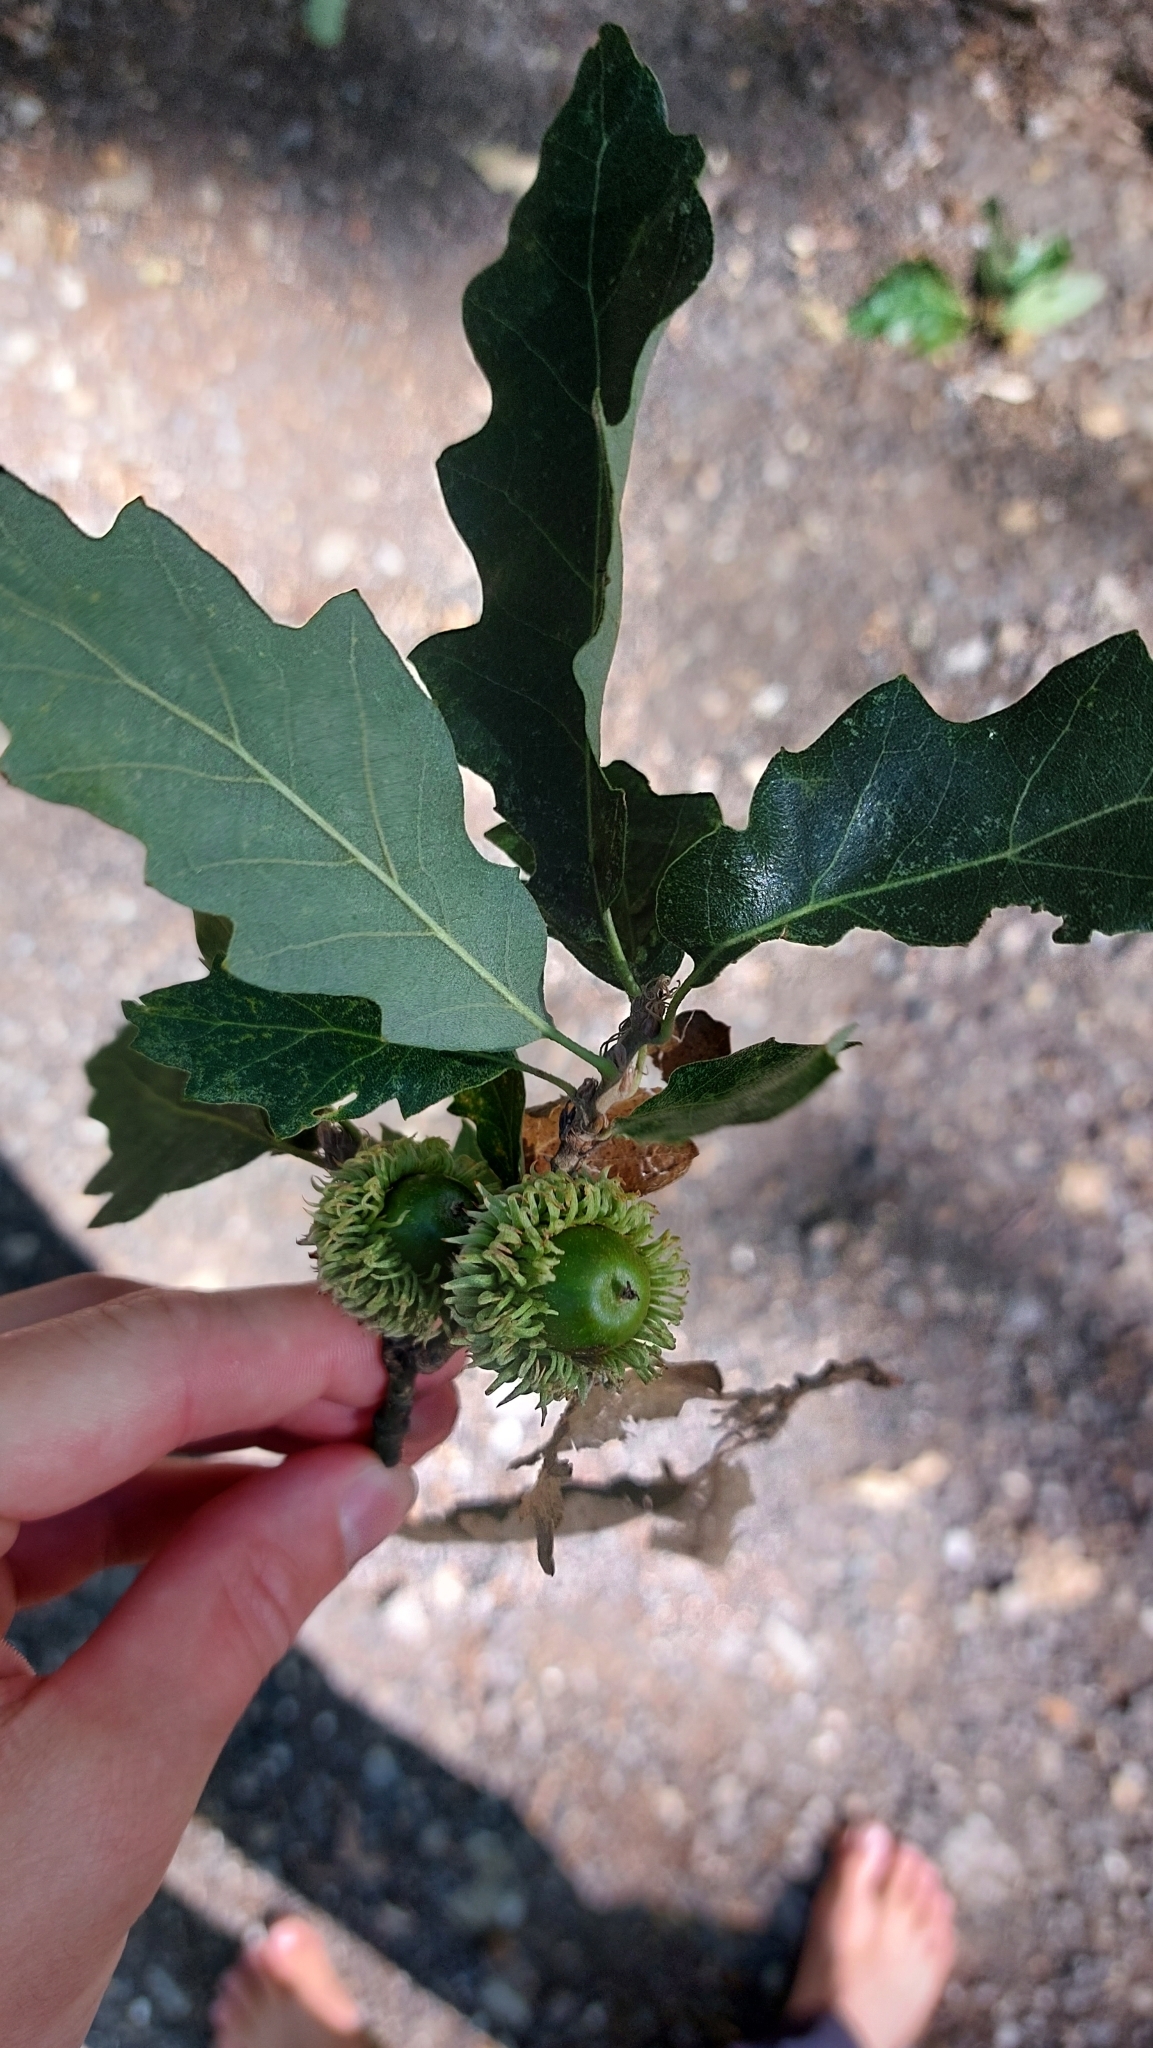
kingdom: Plantae
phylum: Tracheophyta
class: Magnoliopsida
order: Fagales
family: Fagaceae
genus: Quercus
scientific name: Quercus cerris
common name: Turkey oak
